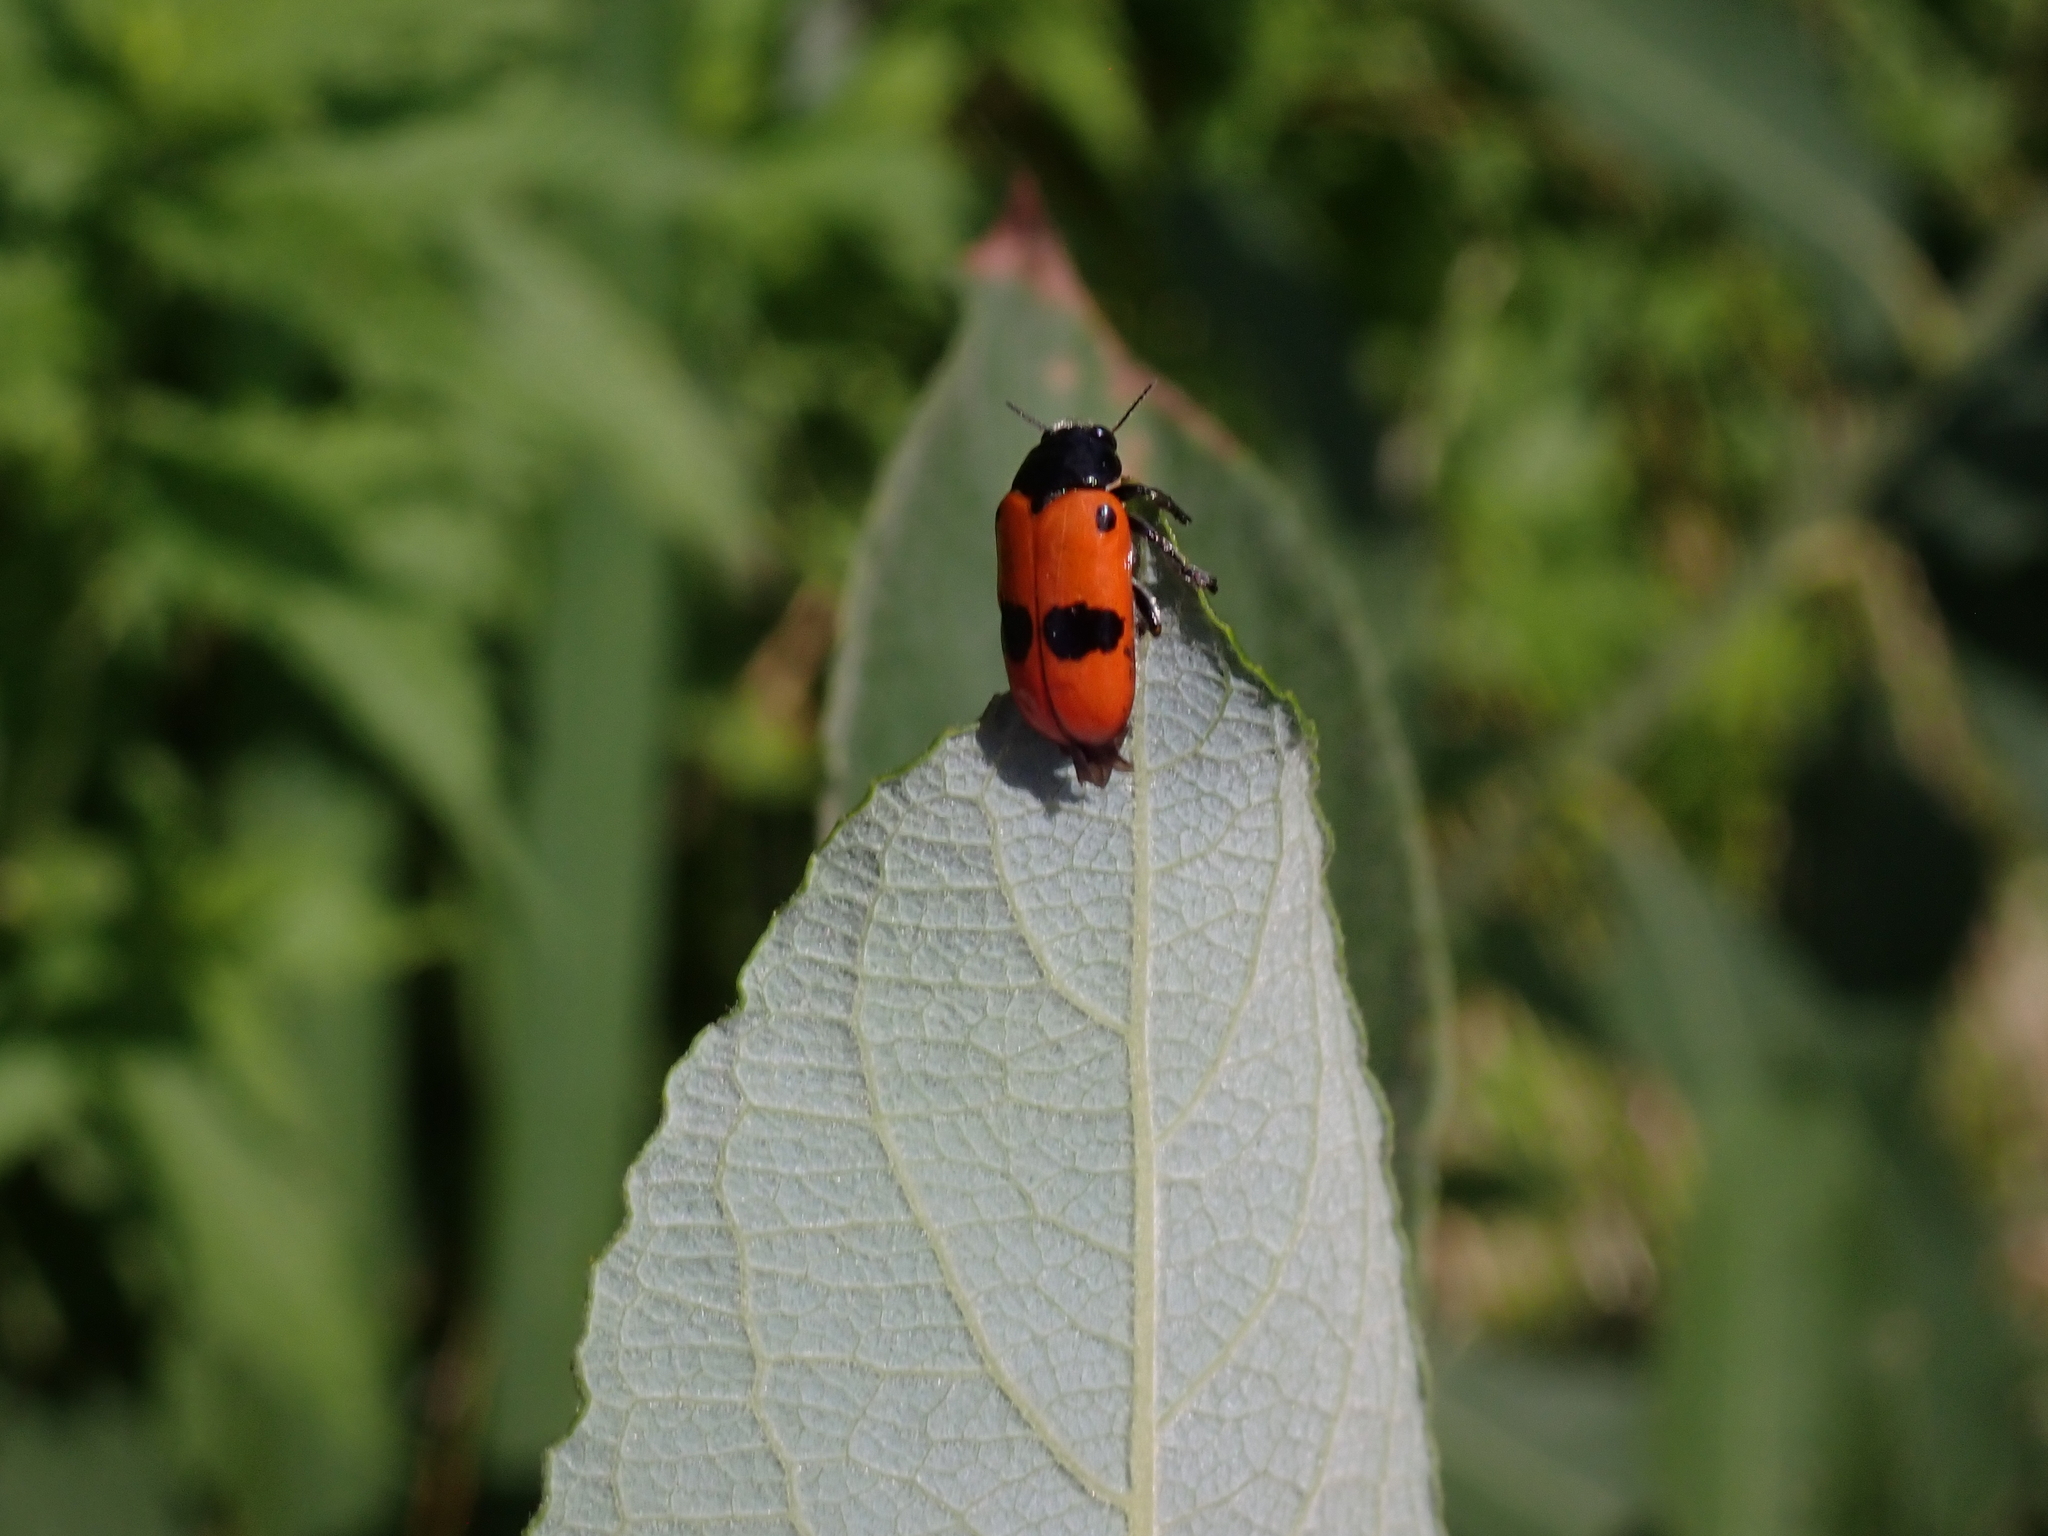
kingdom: Animalia
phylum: Arthropoda
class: Insecta
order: Coleoptera
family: Chrysomelidae
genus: Clytra
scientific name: Clytra laeviuscula
